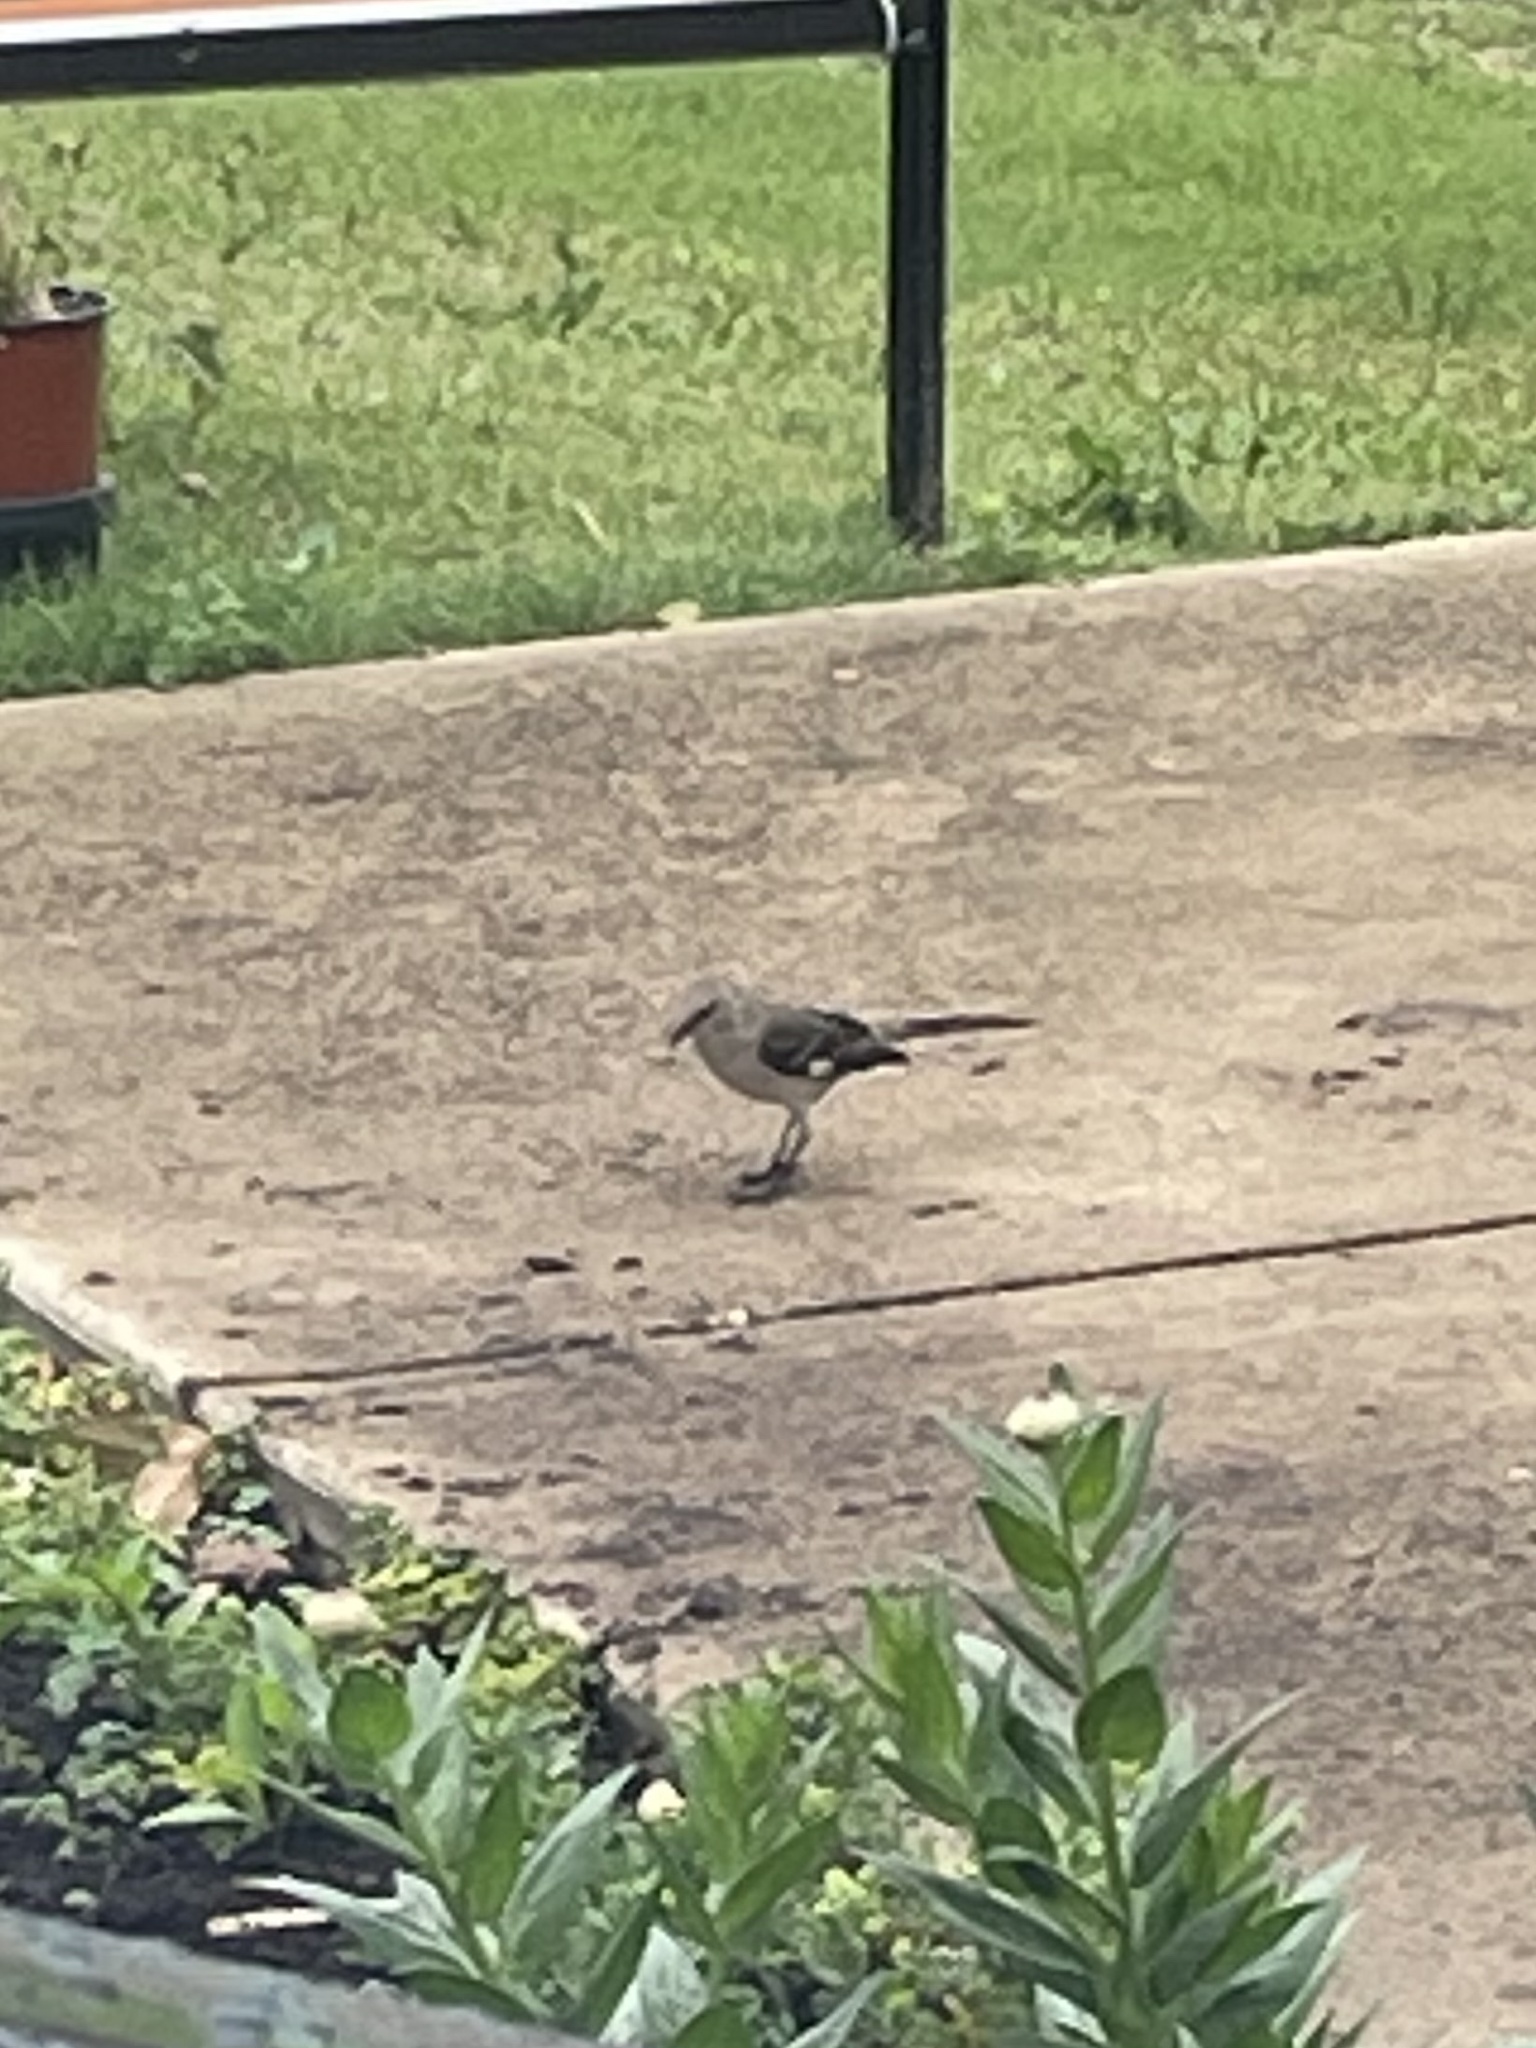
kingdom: Animalia
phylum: Chordata
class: Aves
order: Passeriformes
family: Mimidae
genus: Mimus
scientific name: Mimus polyglottos
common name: Northern mockingbird
